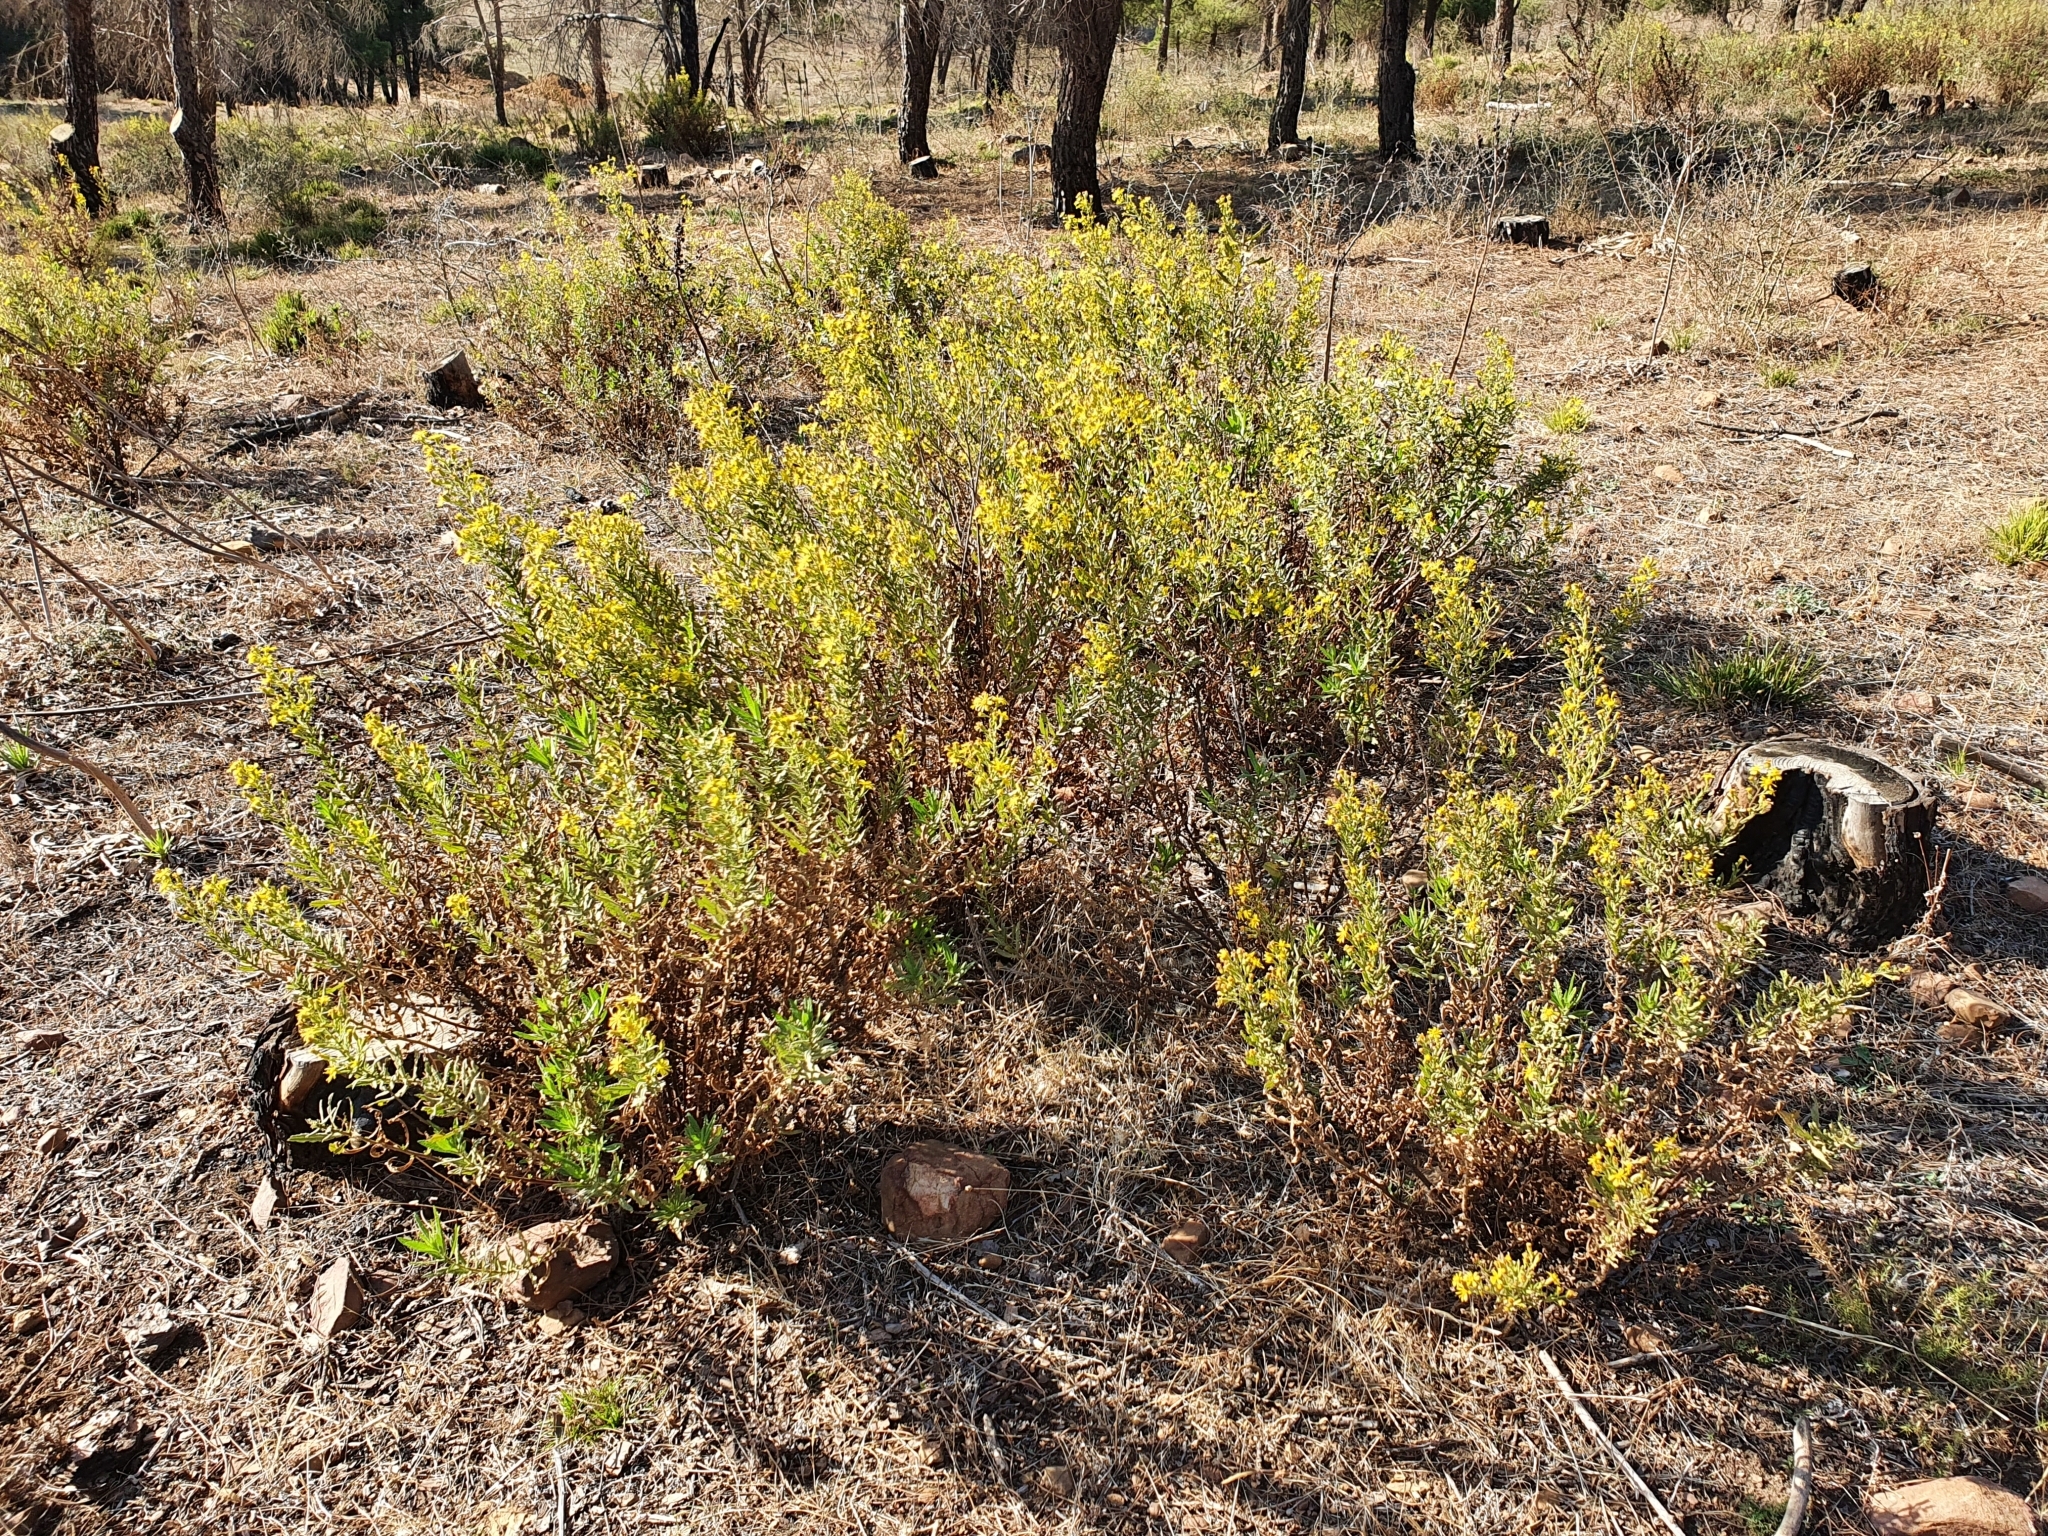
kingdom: Plantae
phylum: Tracheophyta
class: Magnoliopsida
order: Asterales
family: Asteraceae
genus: Dittrichia
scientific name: Dittrichia viscosa
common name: Woody fleabane
